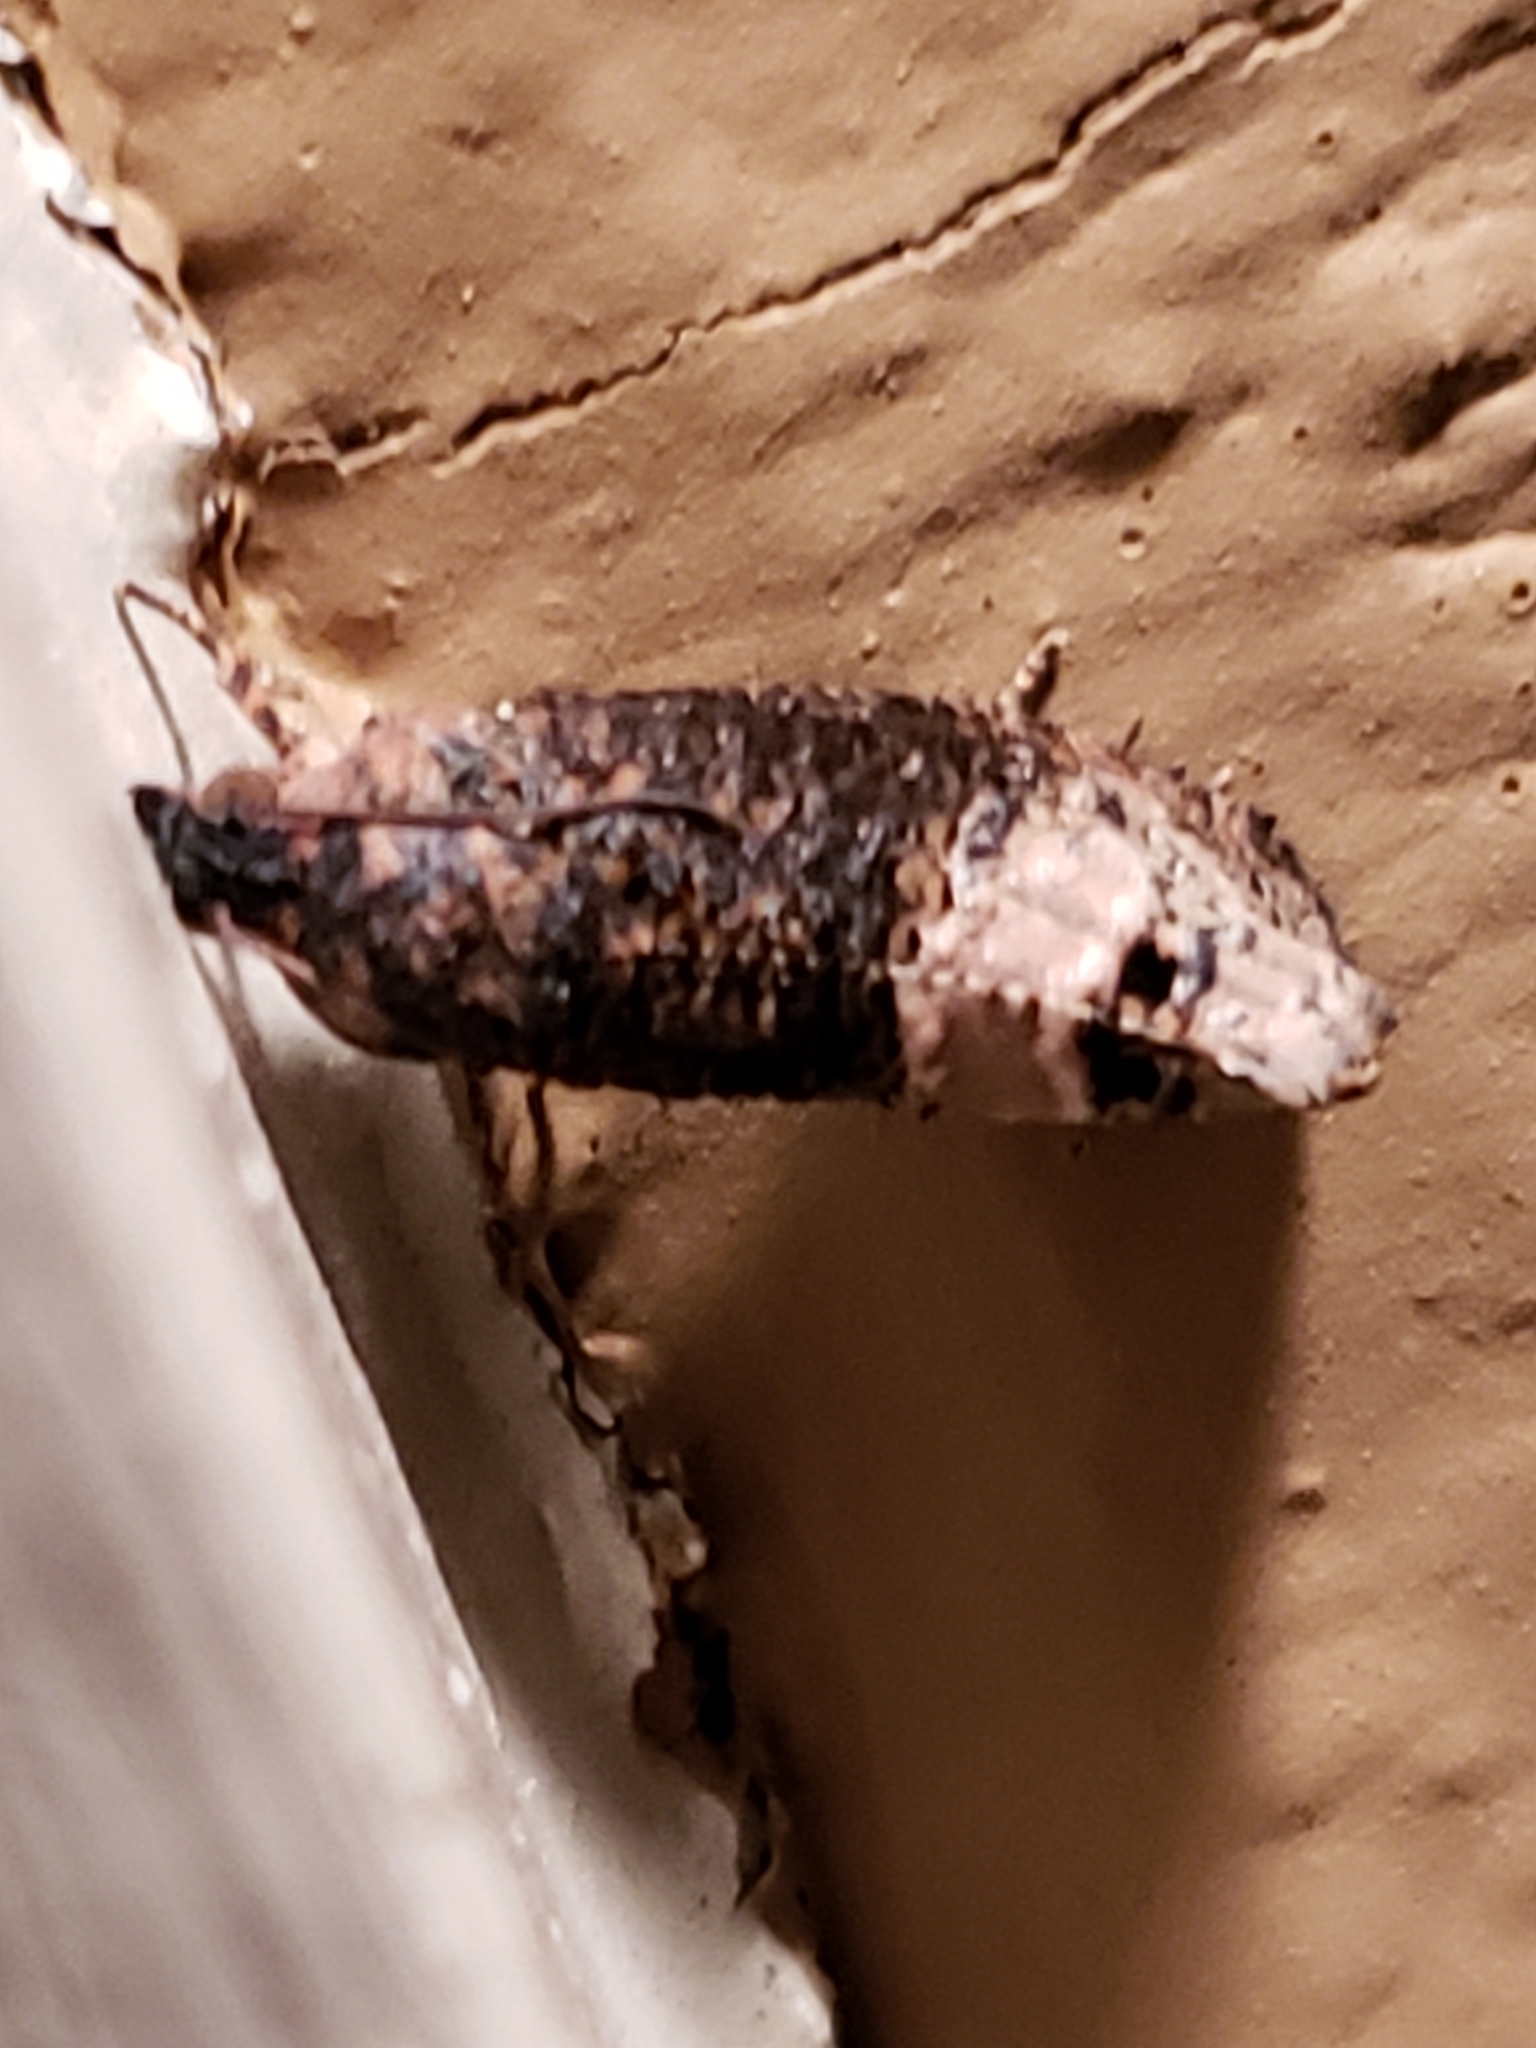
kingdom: Animalia
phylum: Arthropoda
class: Insecta
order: Lepidoptera
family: Tortricidae
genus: Ecdytolopha
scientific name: Ecdytolopha insiticiana
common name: Locust twig borer moth
